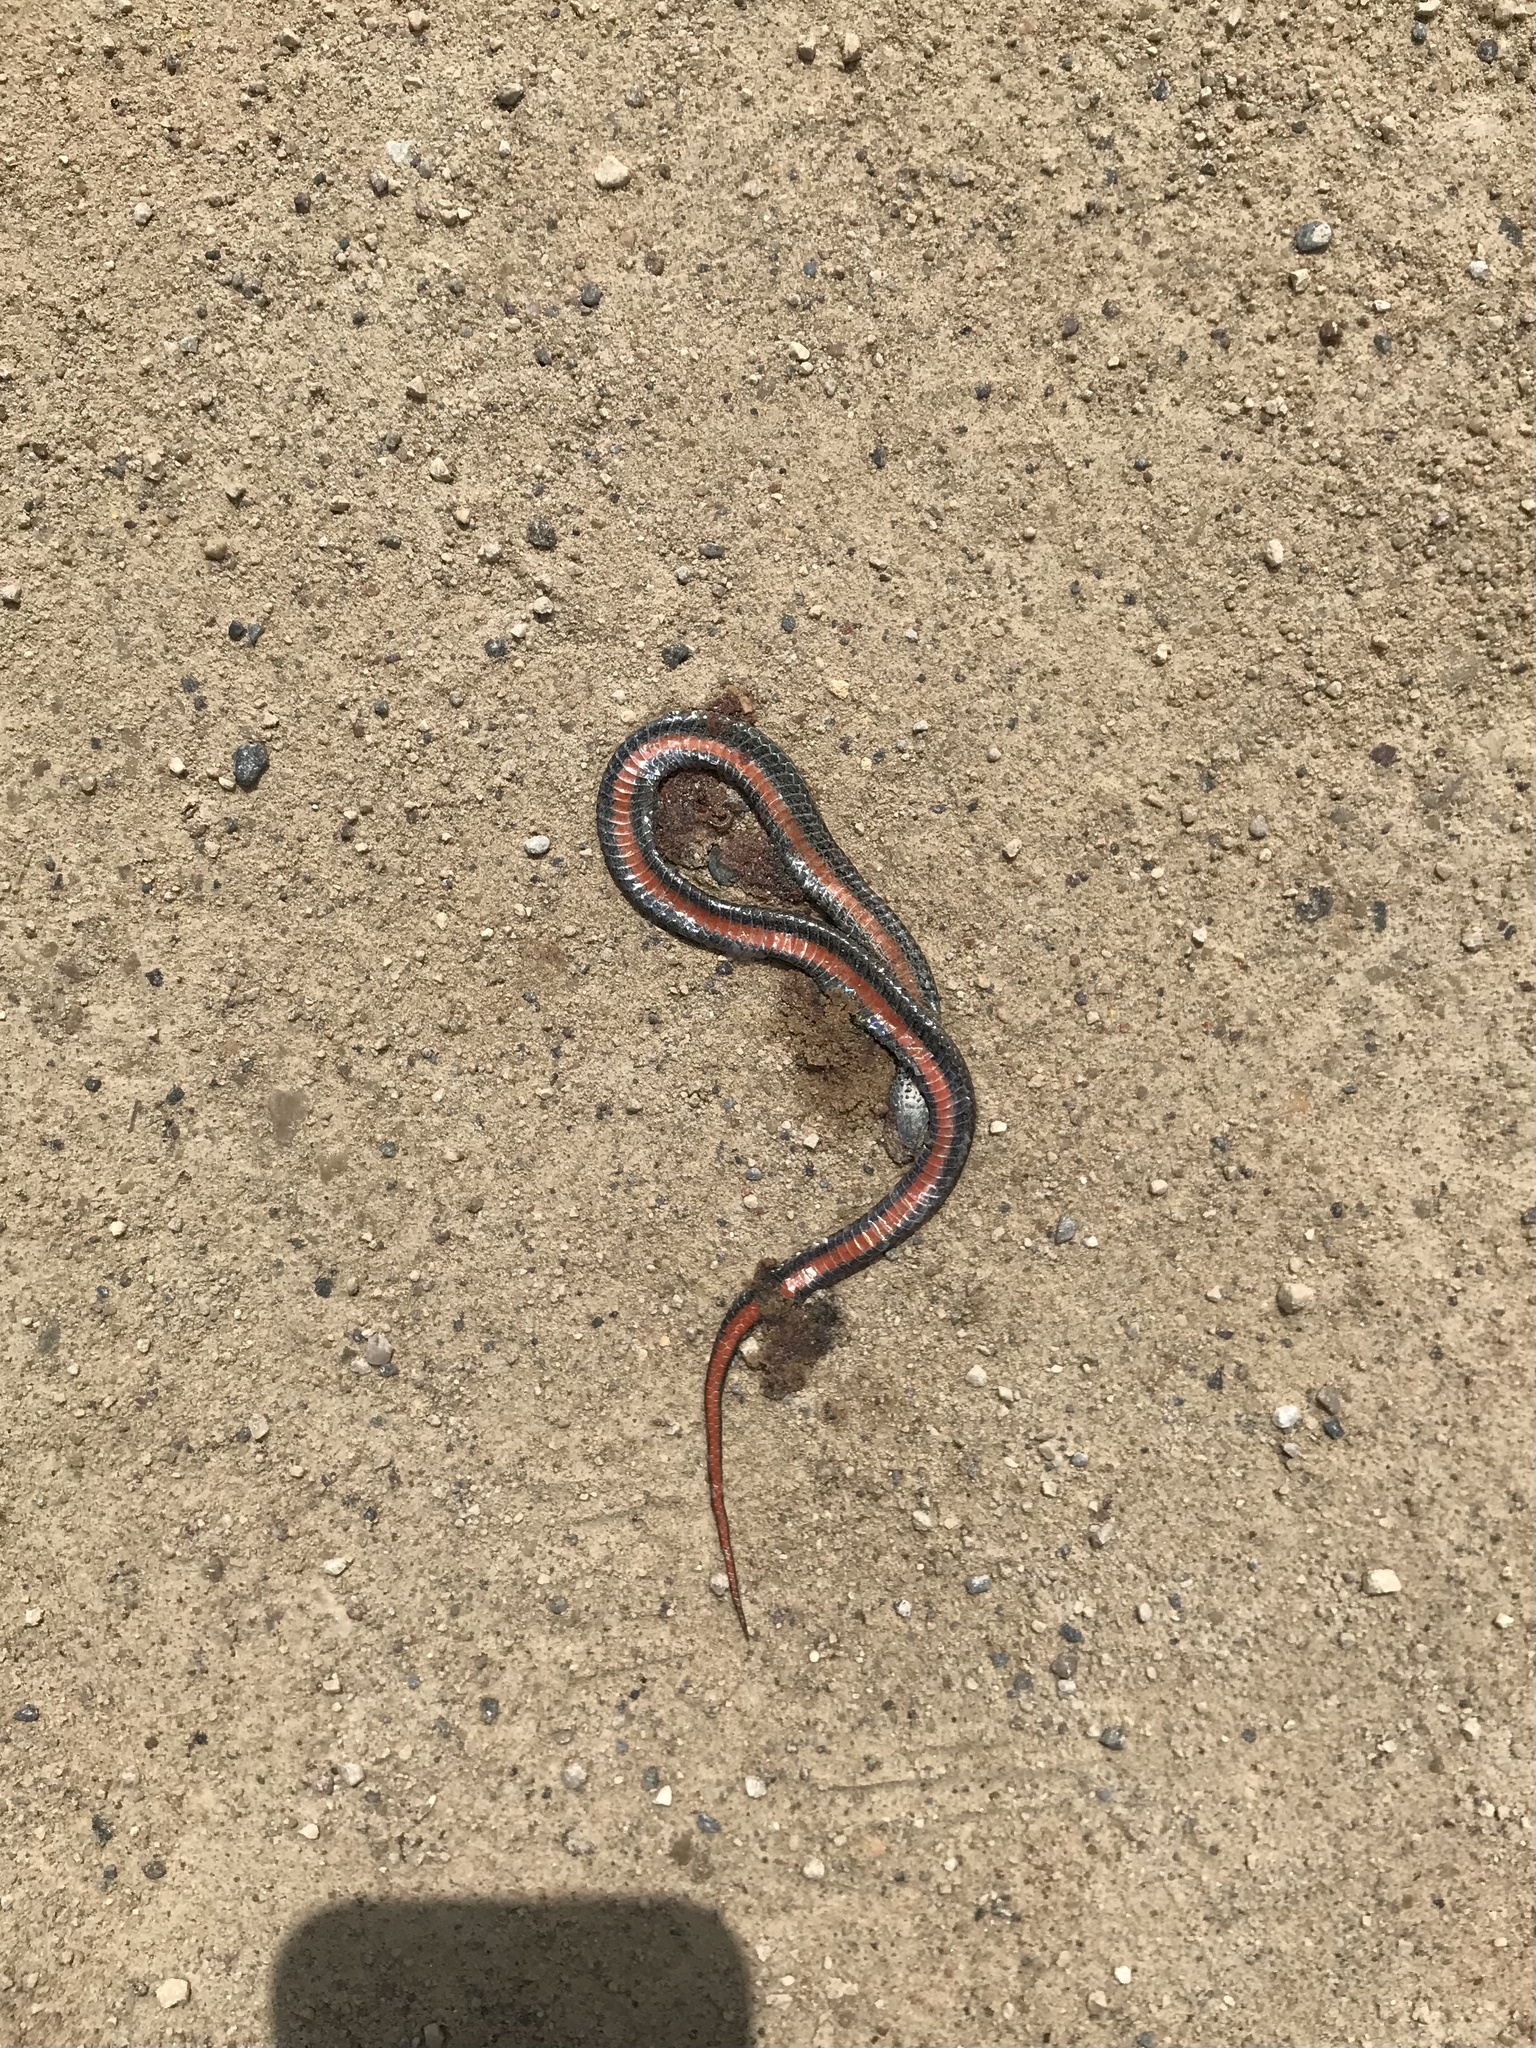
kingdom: Animalia
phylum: Chordata
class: Squamata
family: Colubridae
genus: Storeria
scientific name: Storeria occipitomaculata
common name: Redbelly snake
